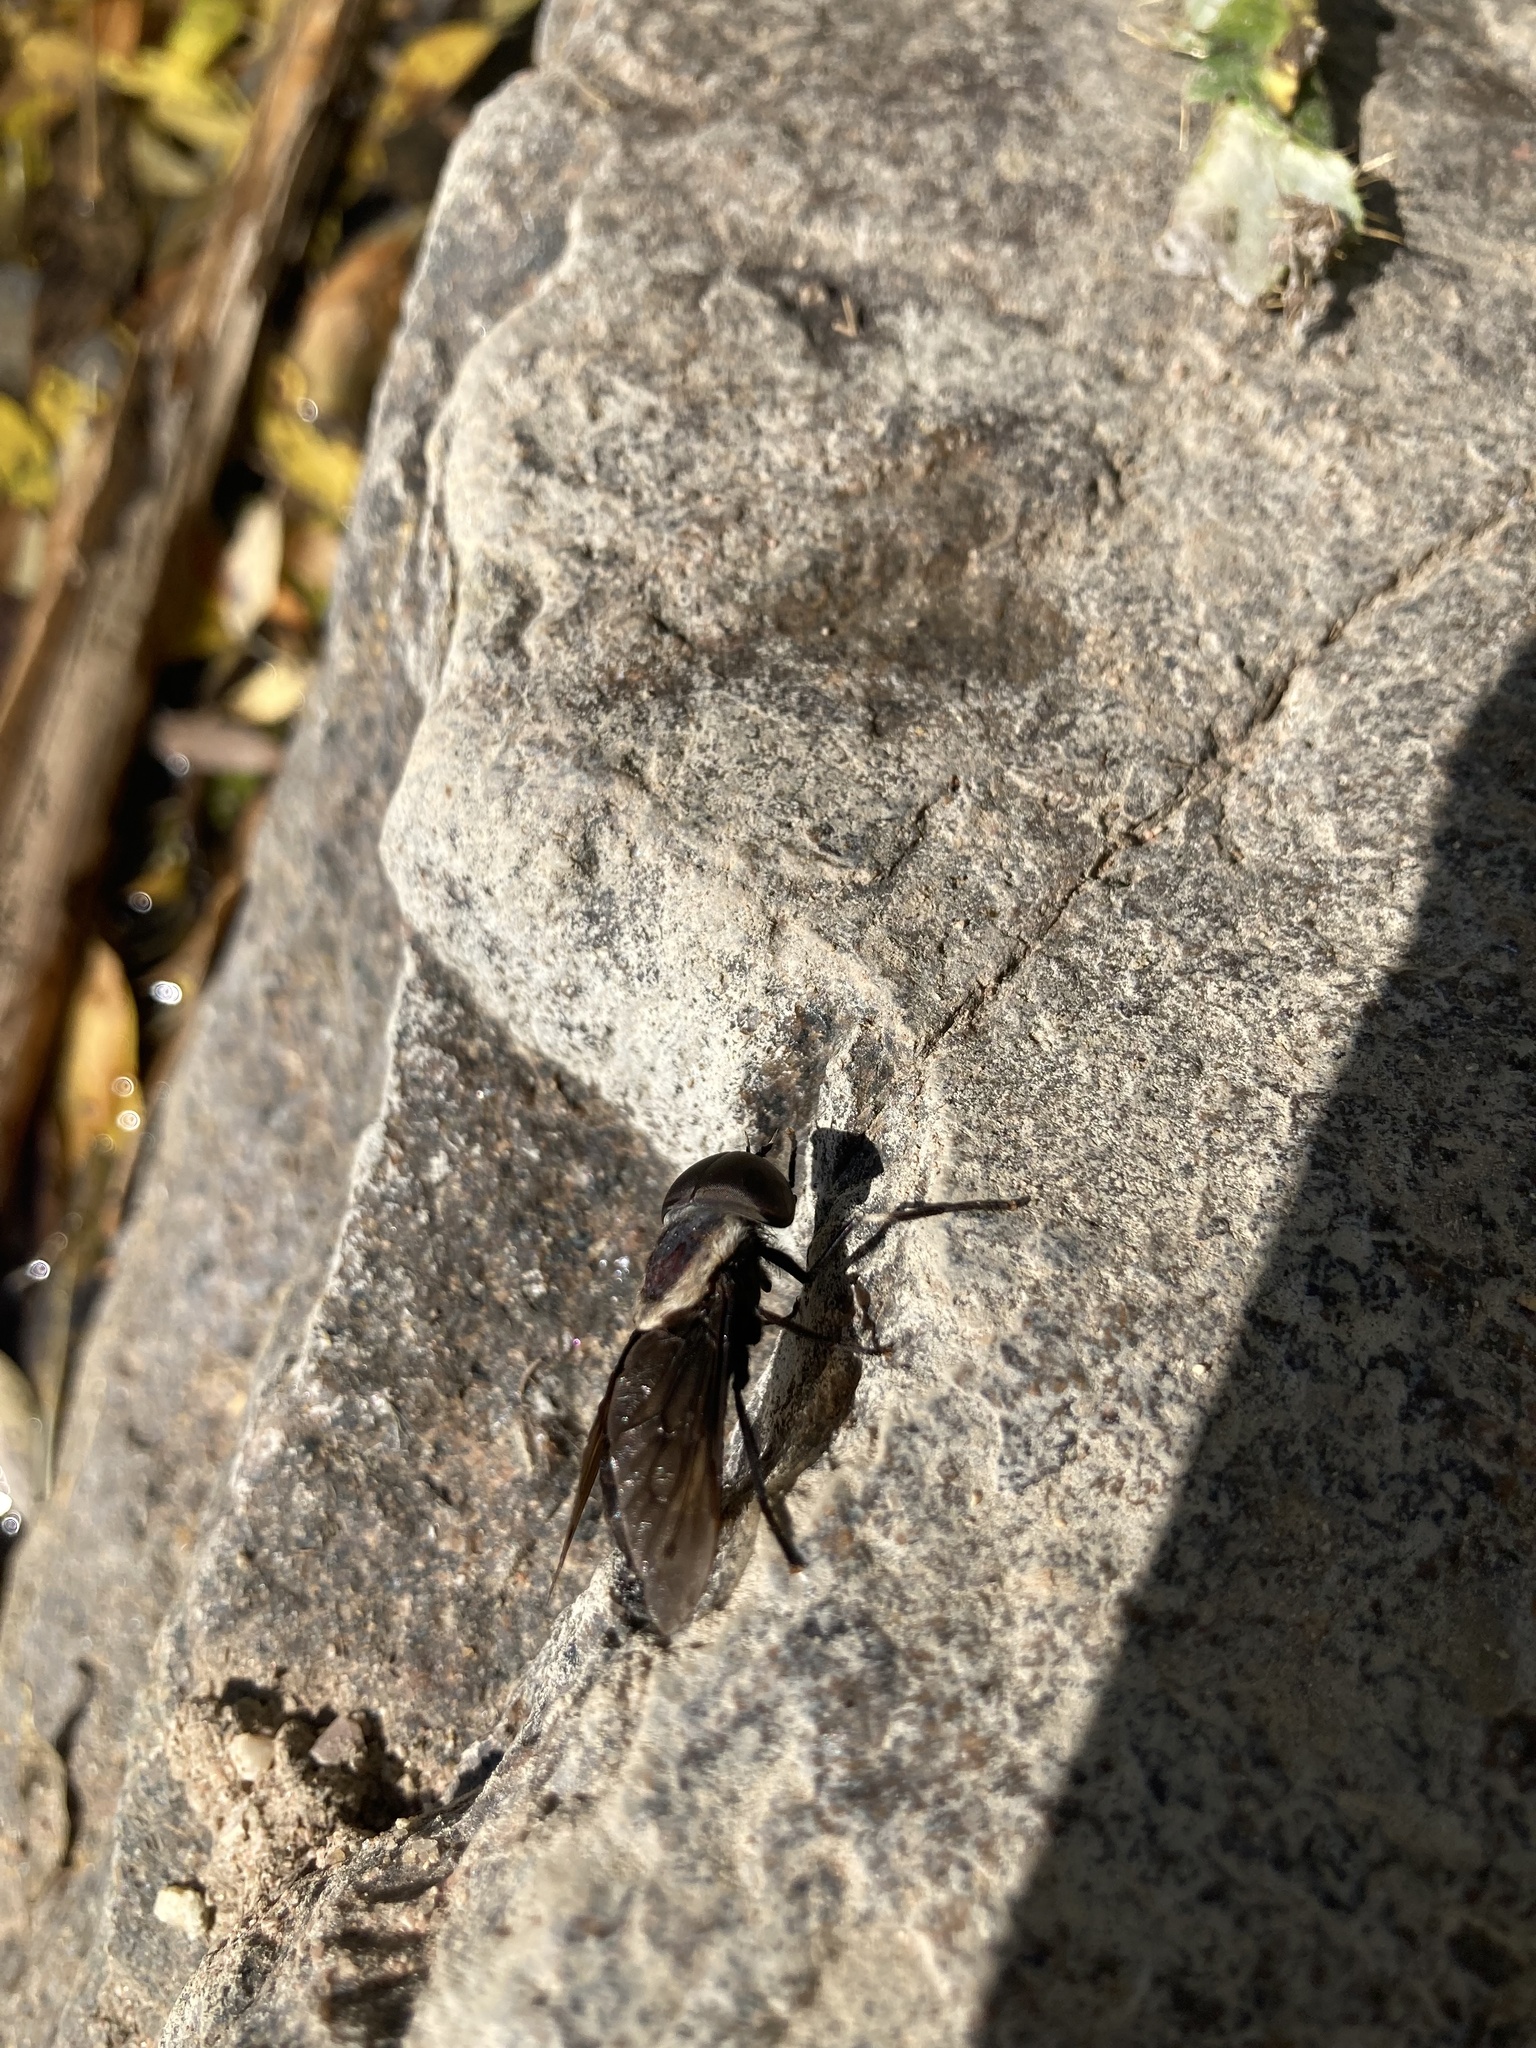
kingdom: Animalia
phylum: Arthropoda
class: Insecta
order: Diptera
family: Tabanidae
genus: Tabanus
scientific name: Tabanus punctifer
